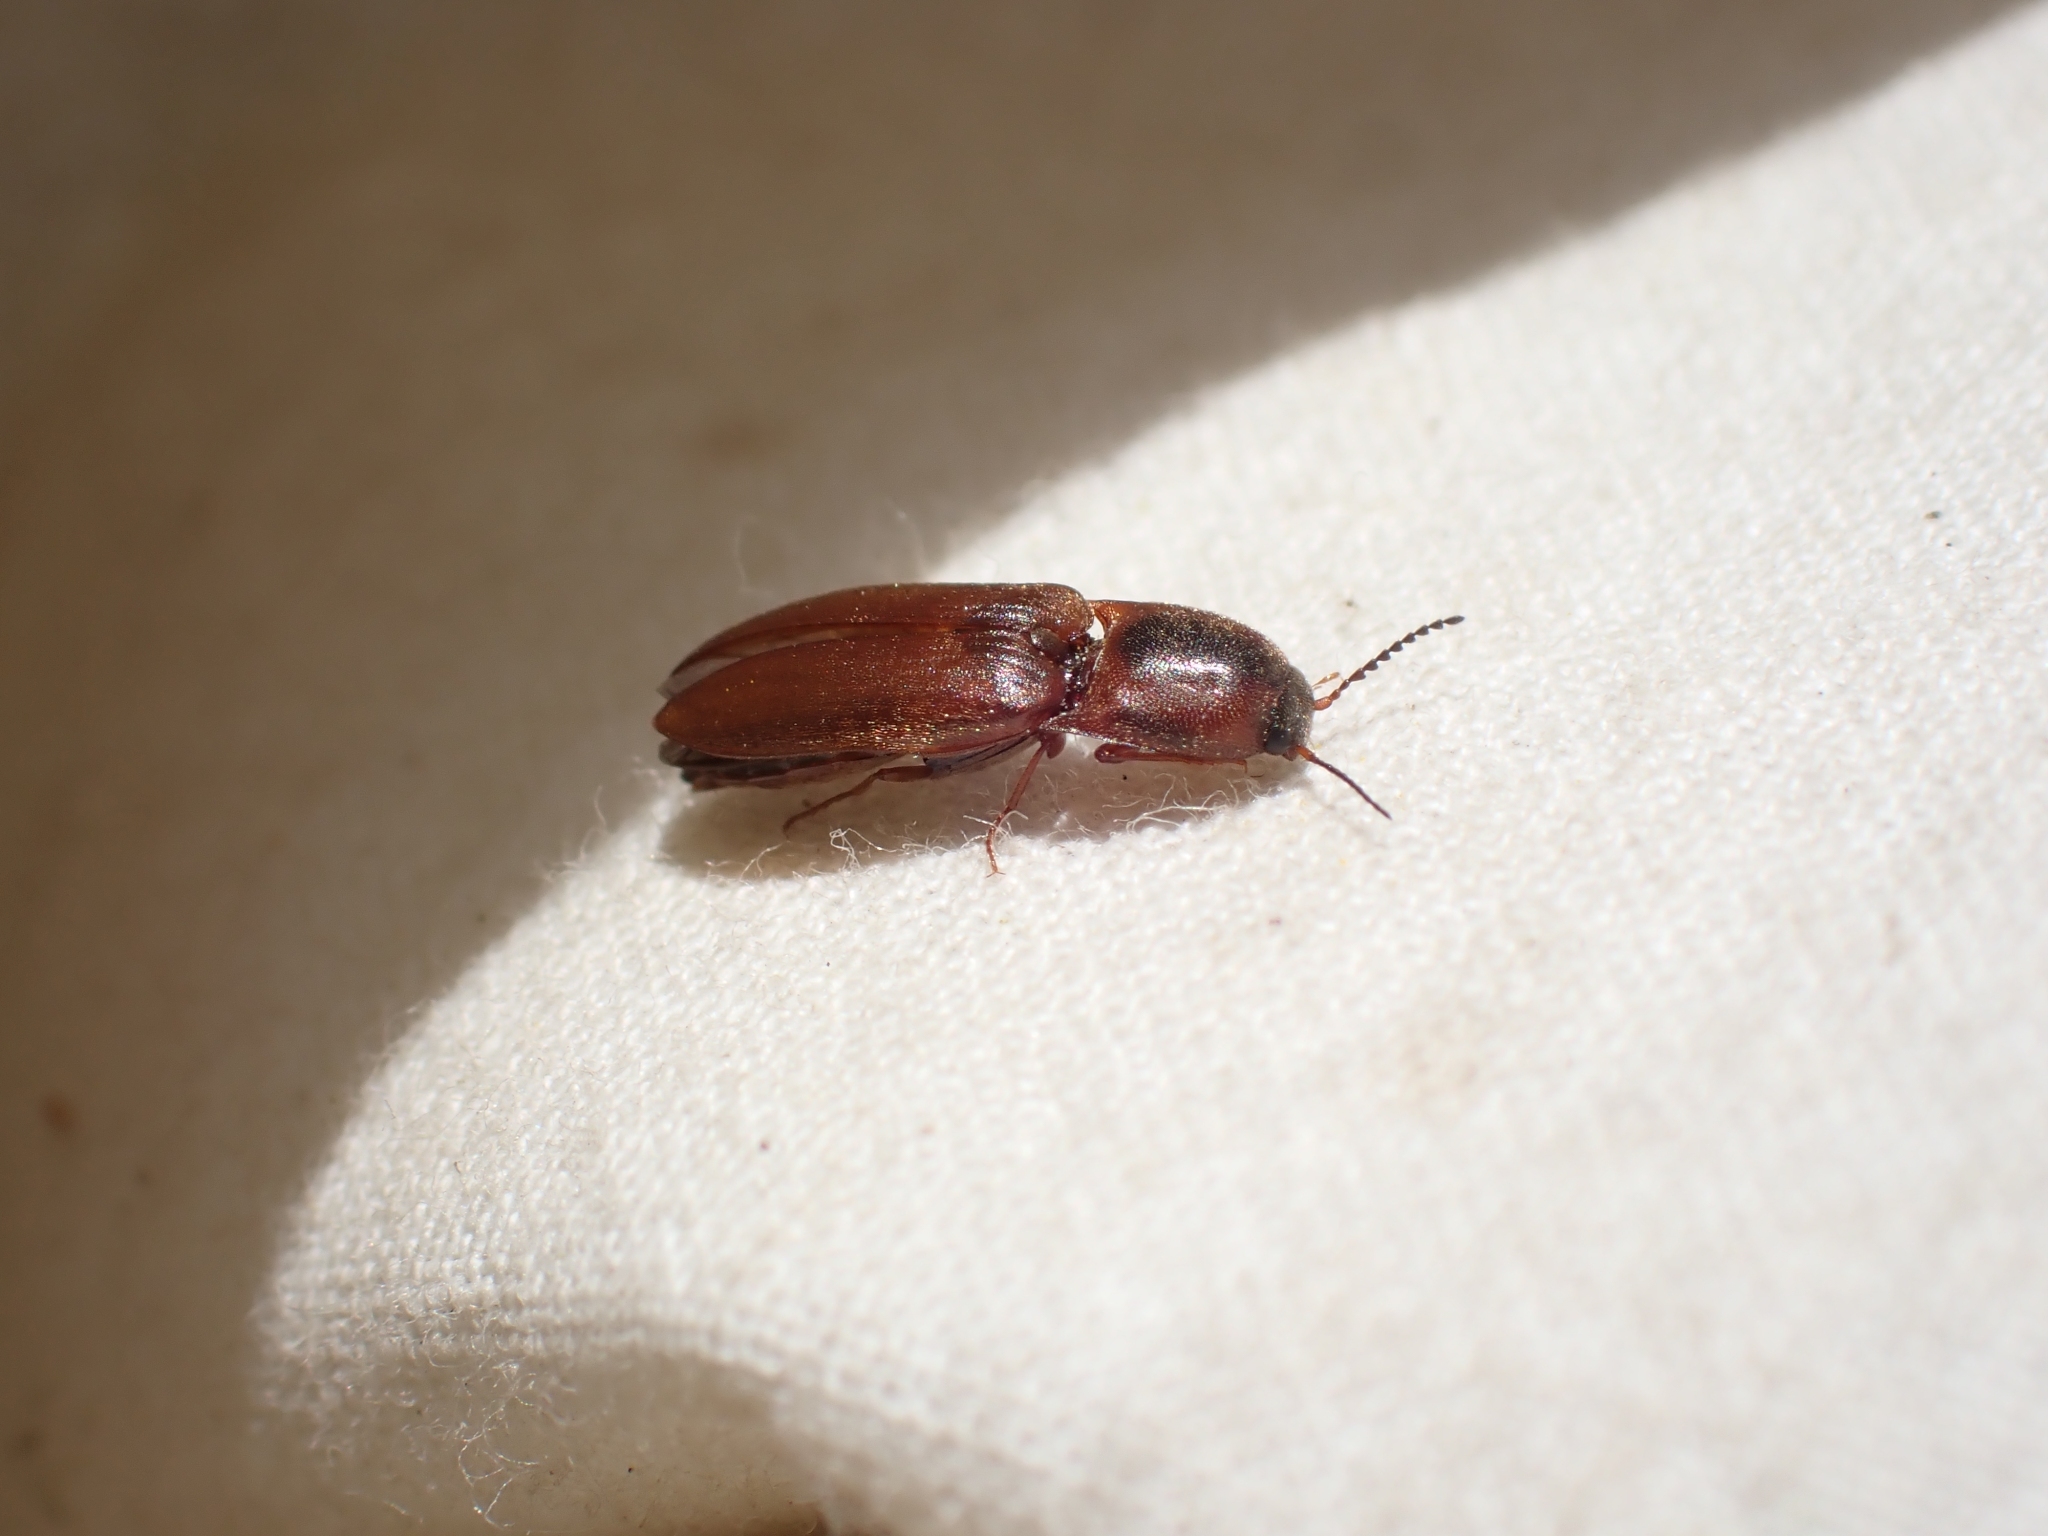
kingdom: Animalia
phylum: Arthropoda
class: Insecta
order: Coleoptera
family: Elateridae
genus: Sericus
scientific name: Sericus incongruus
